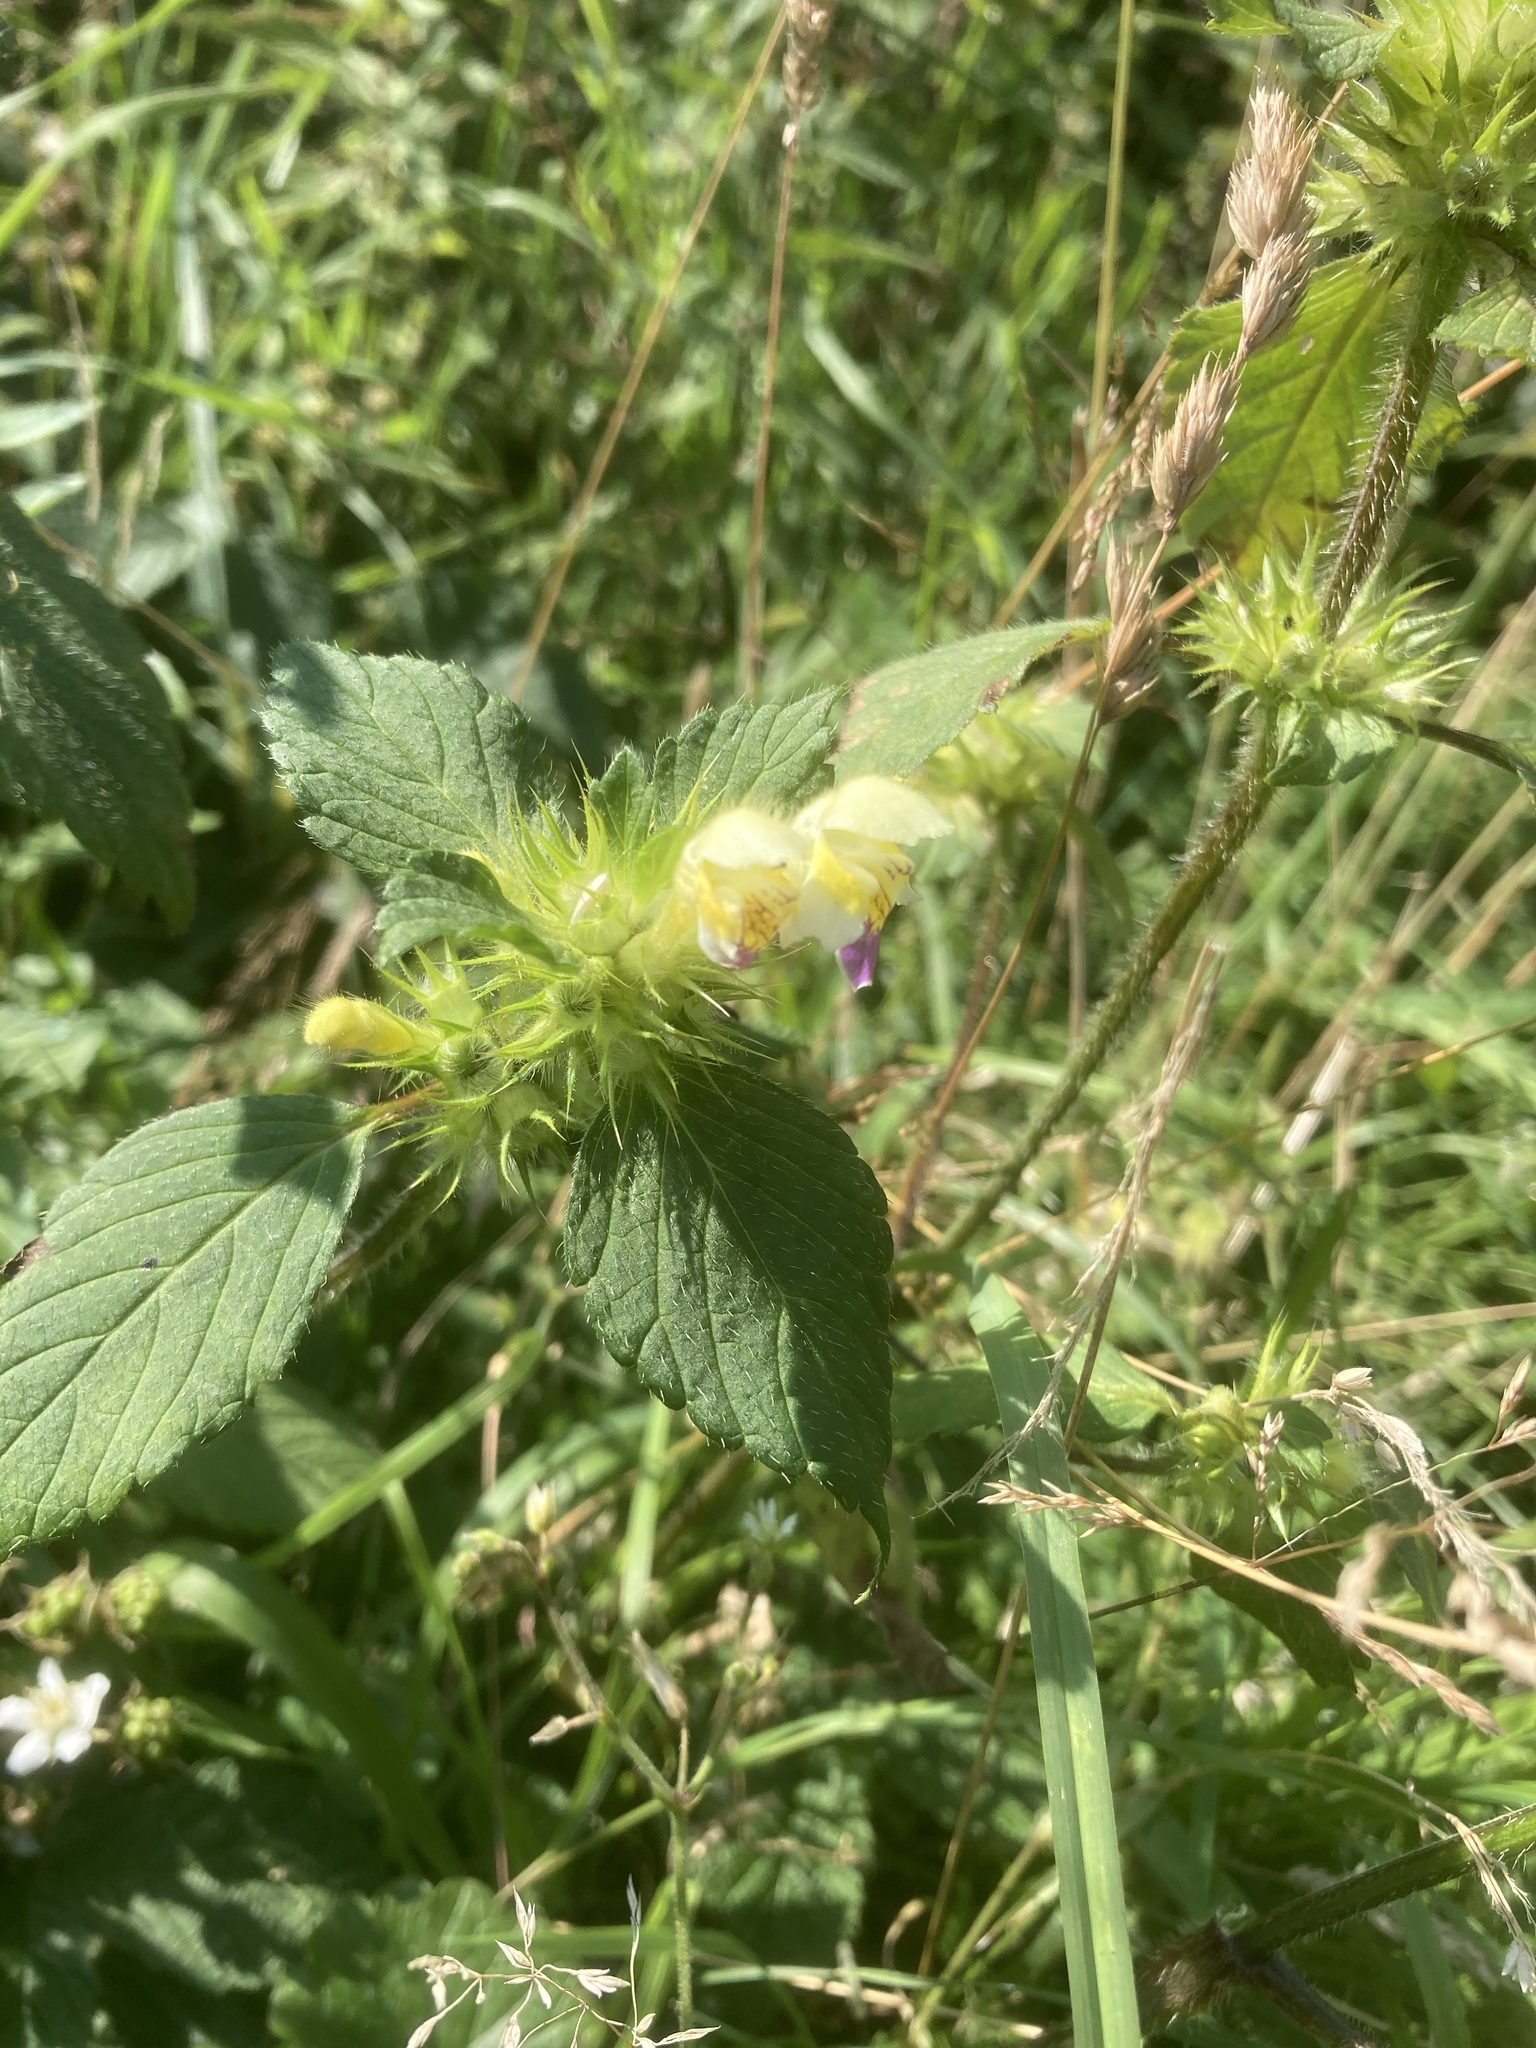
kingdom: Plantae
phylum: Tracheophyta
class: Magnoliopsida
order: Lamiales
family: Lamiaceae
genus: Galeopsis
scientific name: Galeopsis speciosa
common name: Large-flowered hemp-nettle
